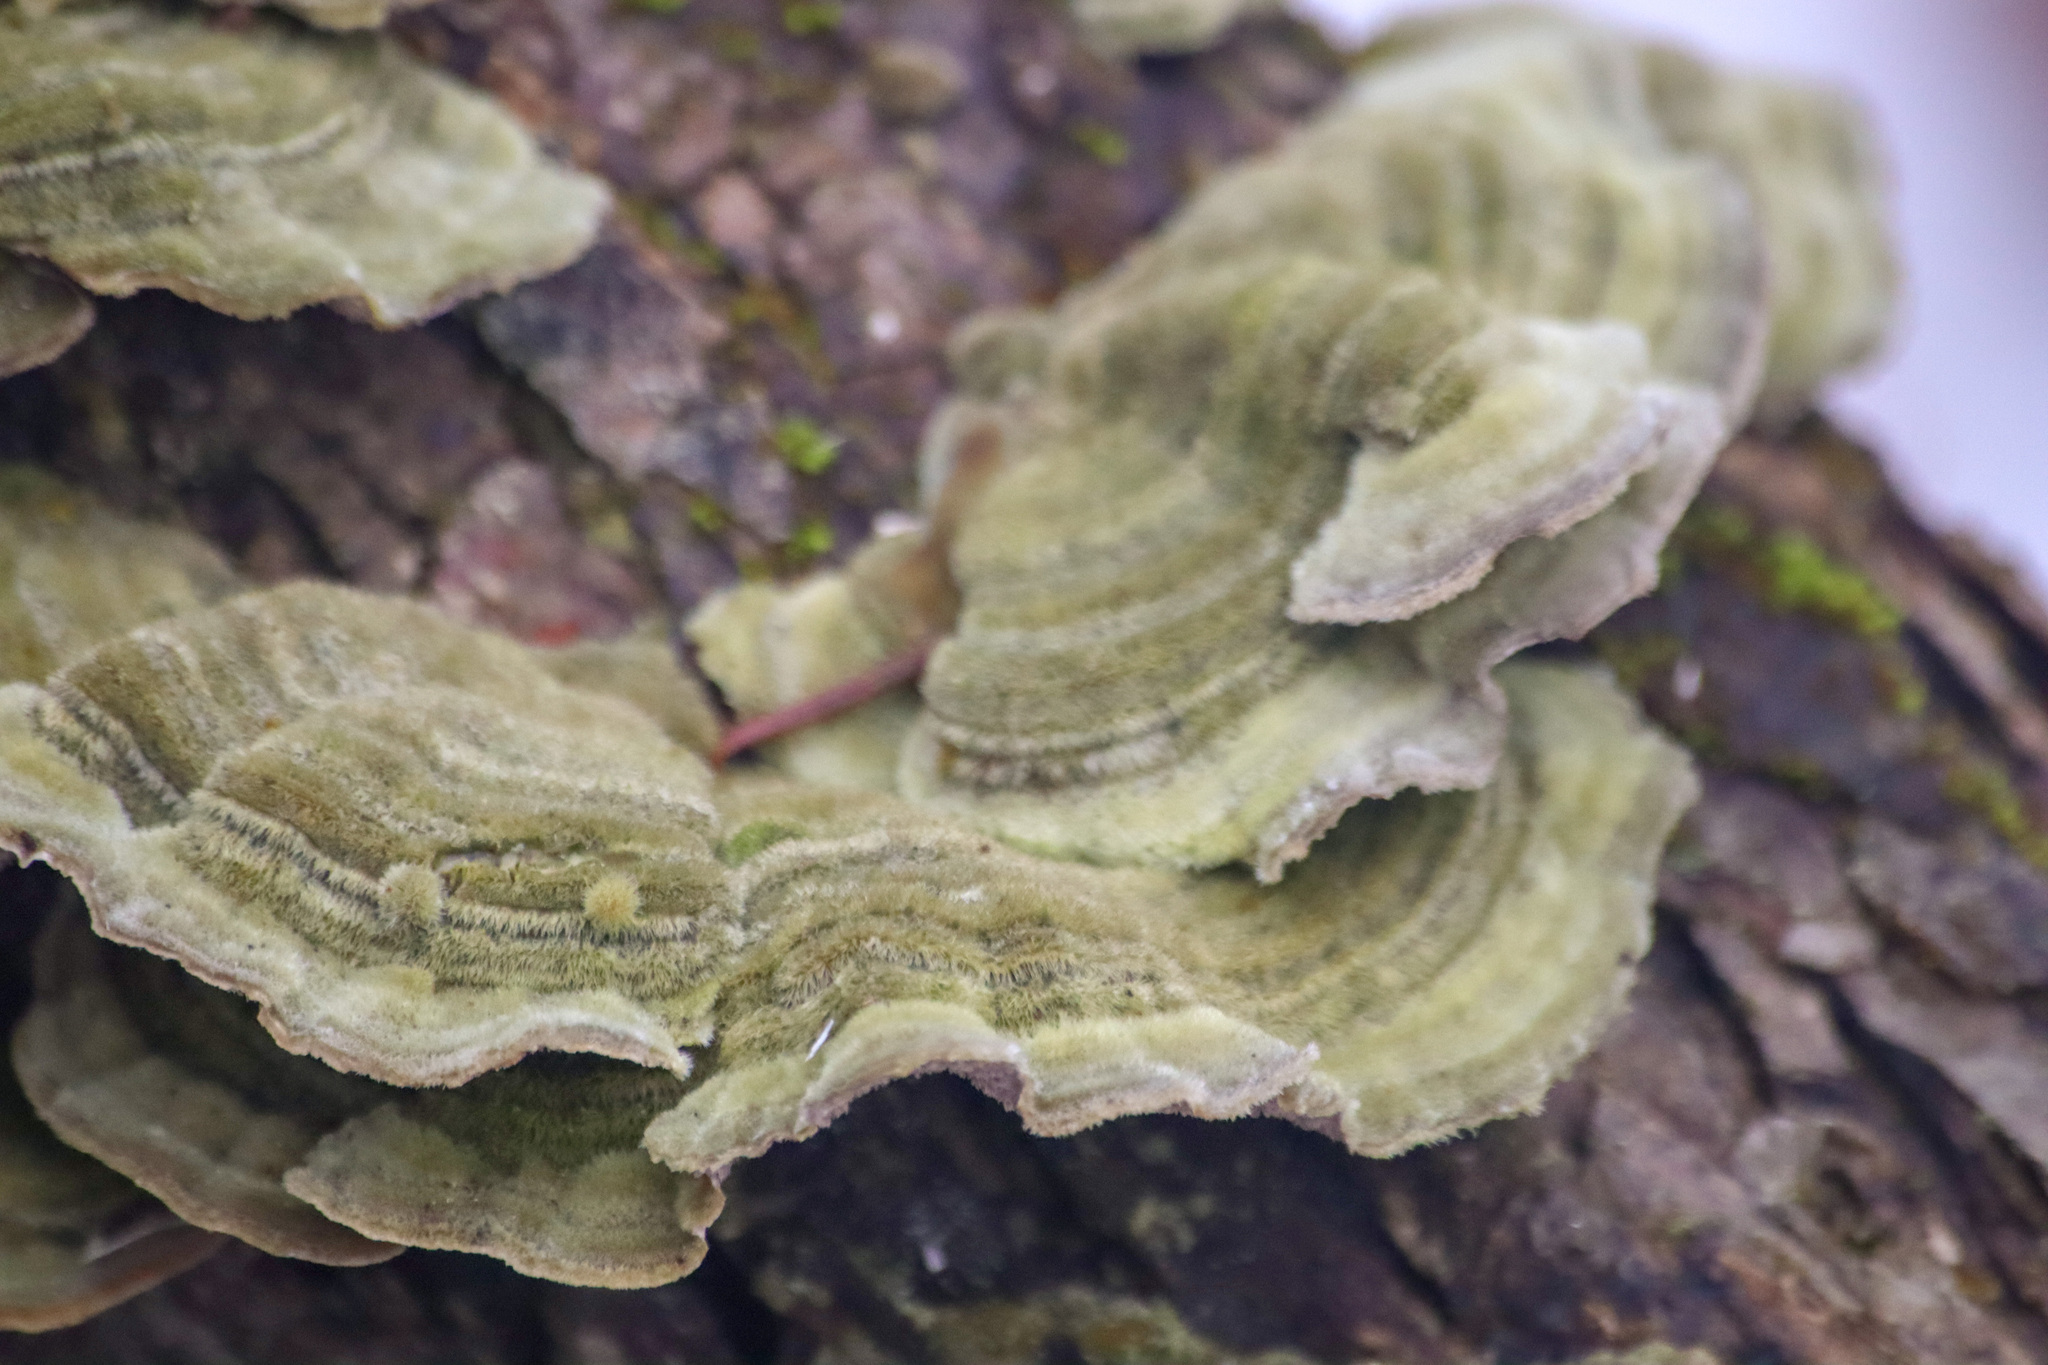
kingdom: Fungi
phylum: Basidiomycota
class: Agaricomycetes
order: Polyporales
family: Cerrenaceae
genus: Cerrena
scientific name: Cerrena unicolor
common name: Mossy maze polypore
